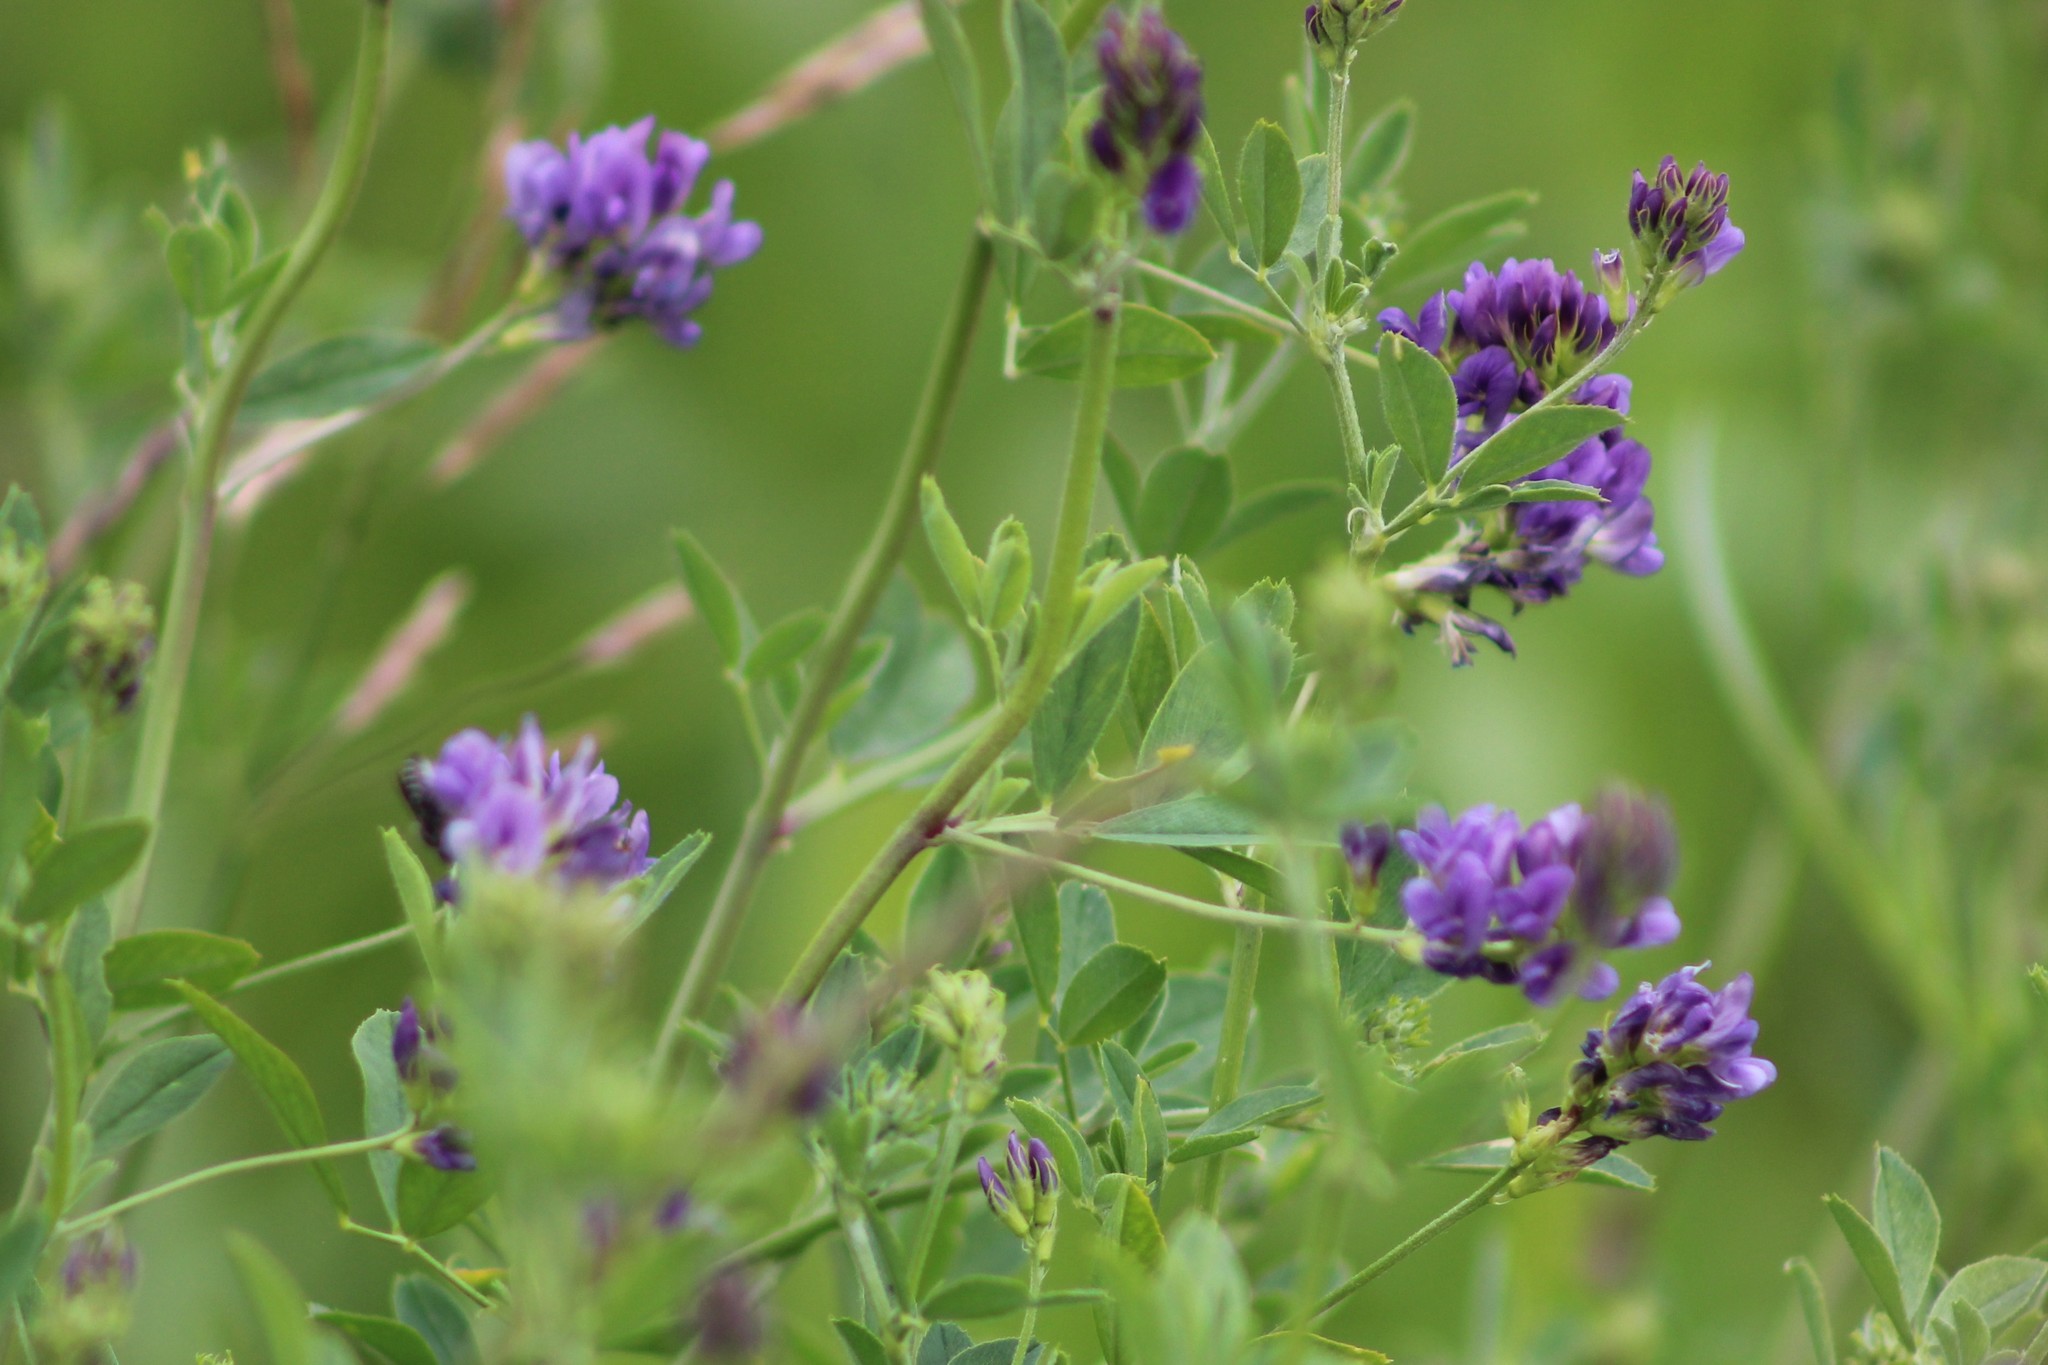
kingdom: Plantae
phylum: Tracheophyta
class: Magnoliopsida
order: Fabales
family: Fabaceae
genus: Medicago
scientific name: Medicago varia
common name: Sand lucerne
